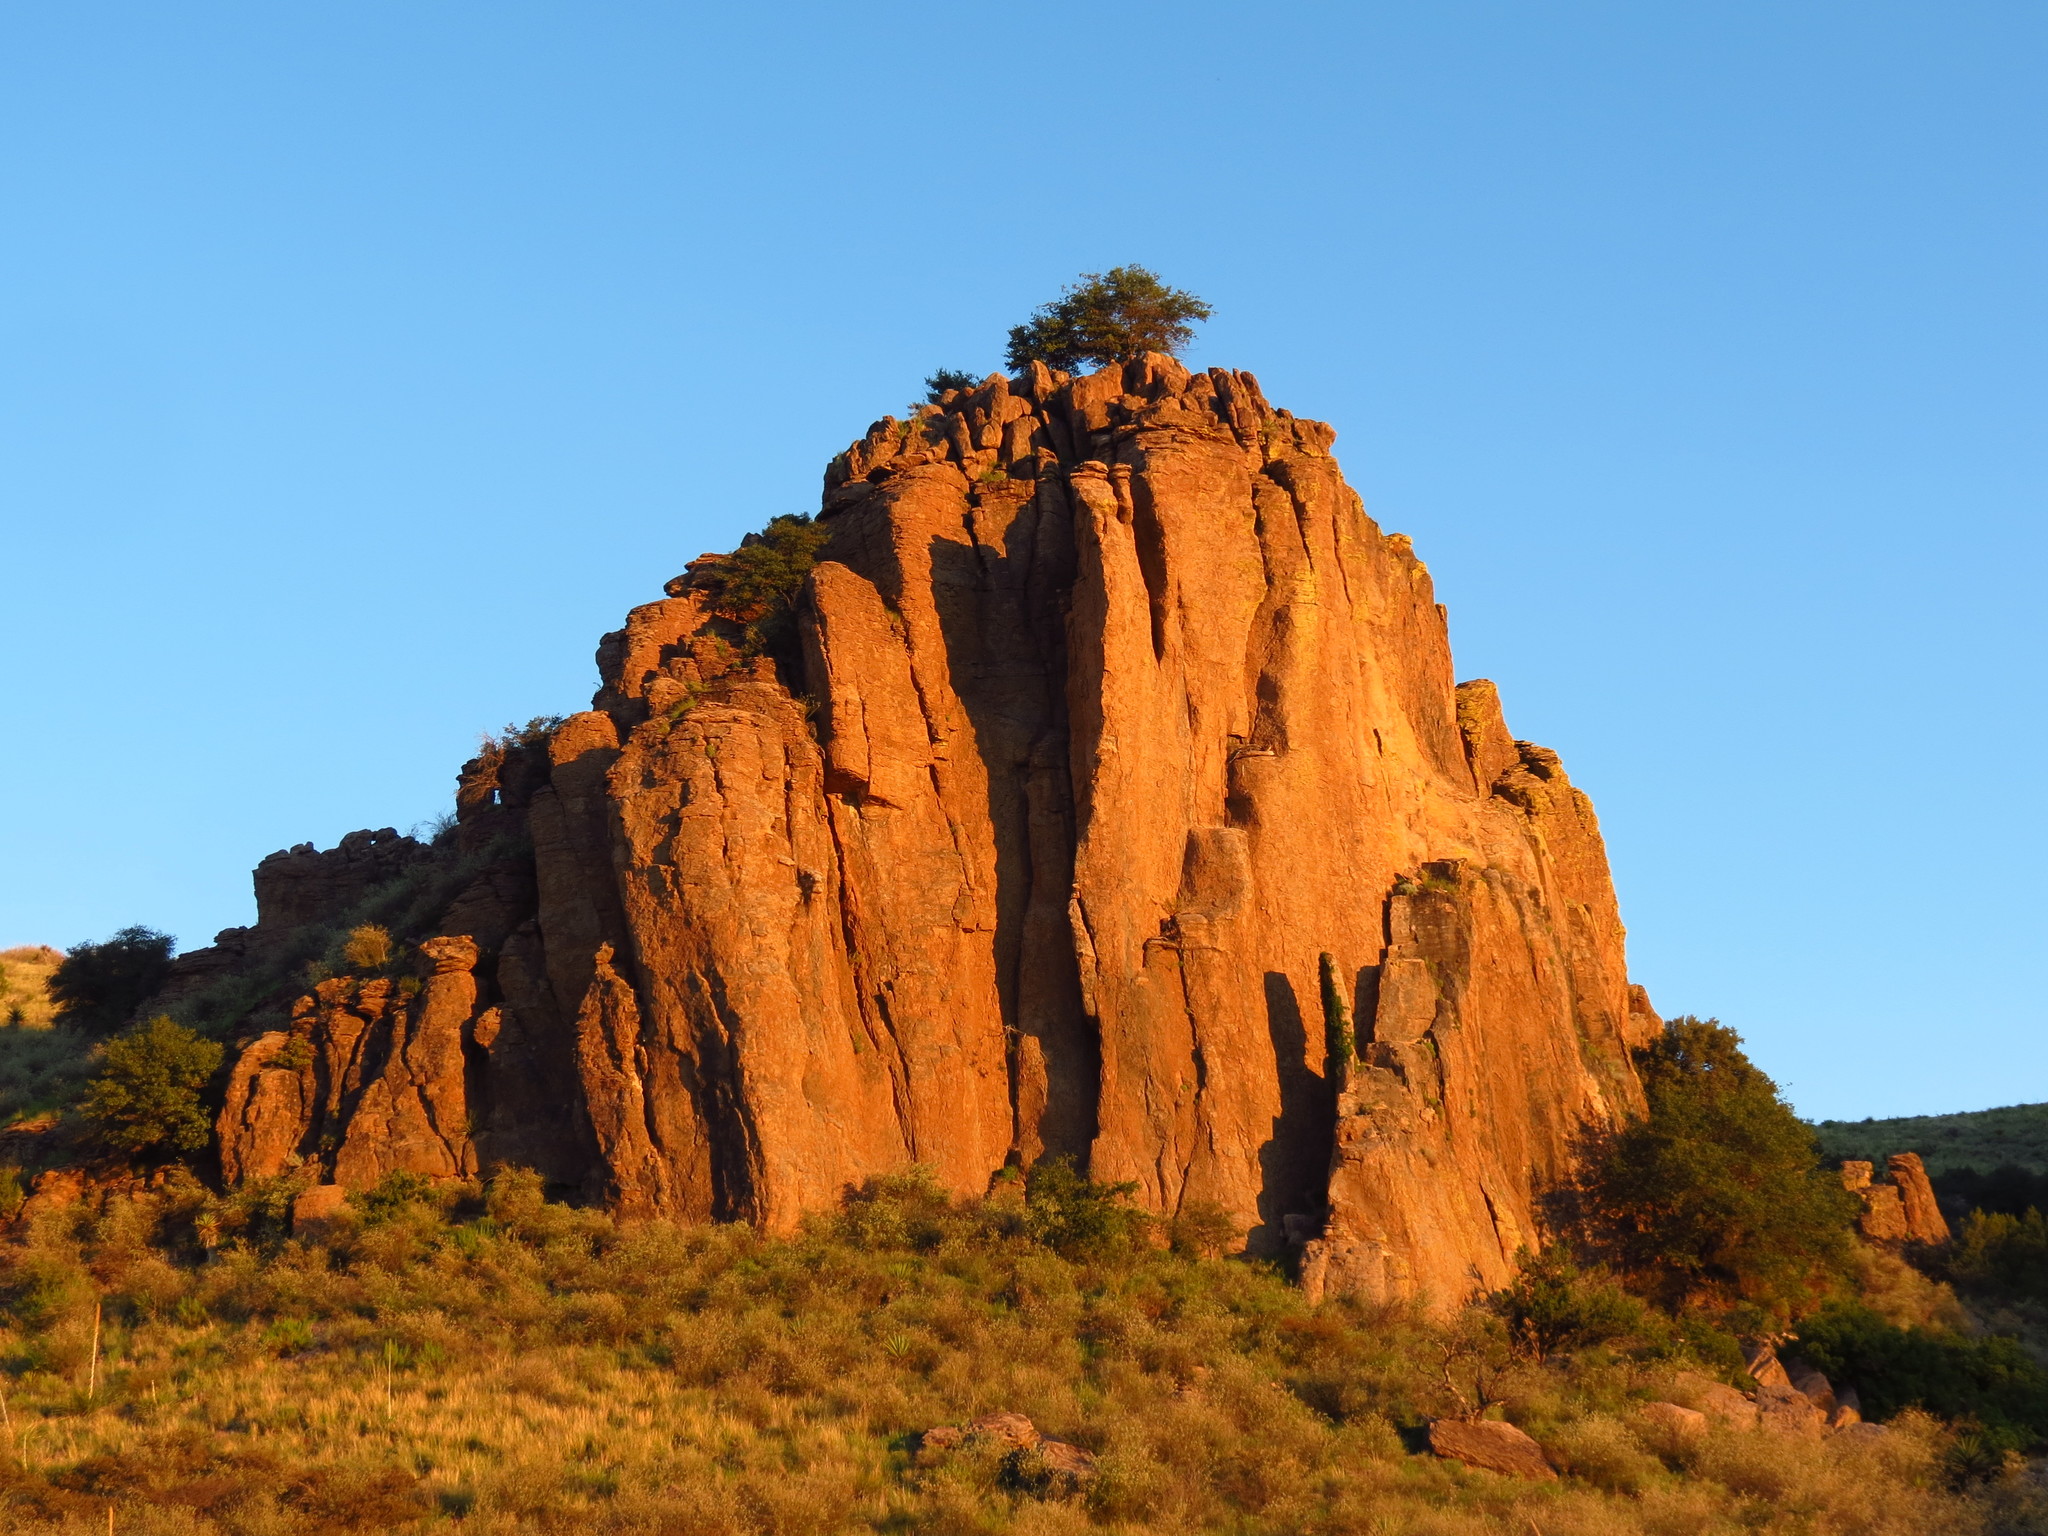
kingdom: Animalia
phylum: Chordata
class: Aves
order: Accipitriformes
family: Accipitridae
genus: Buteo
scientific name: Buteo jamaicensis
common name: Red-tailed hawk
